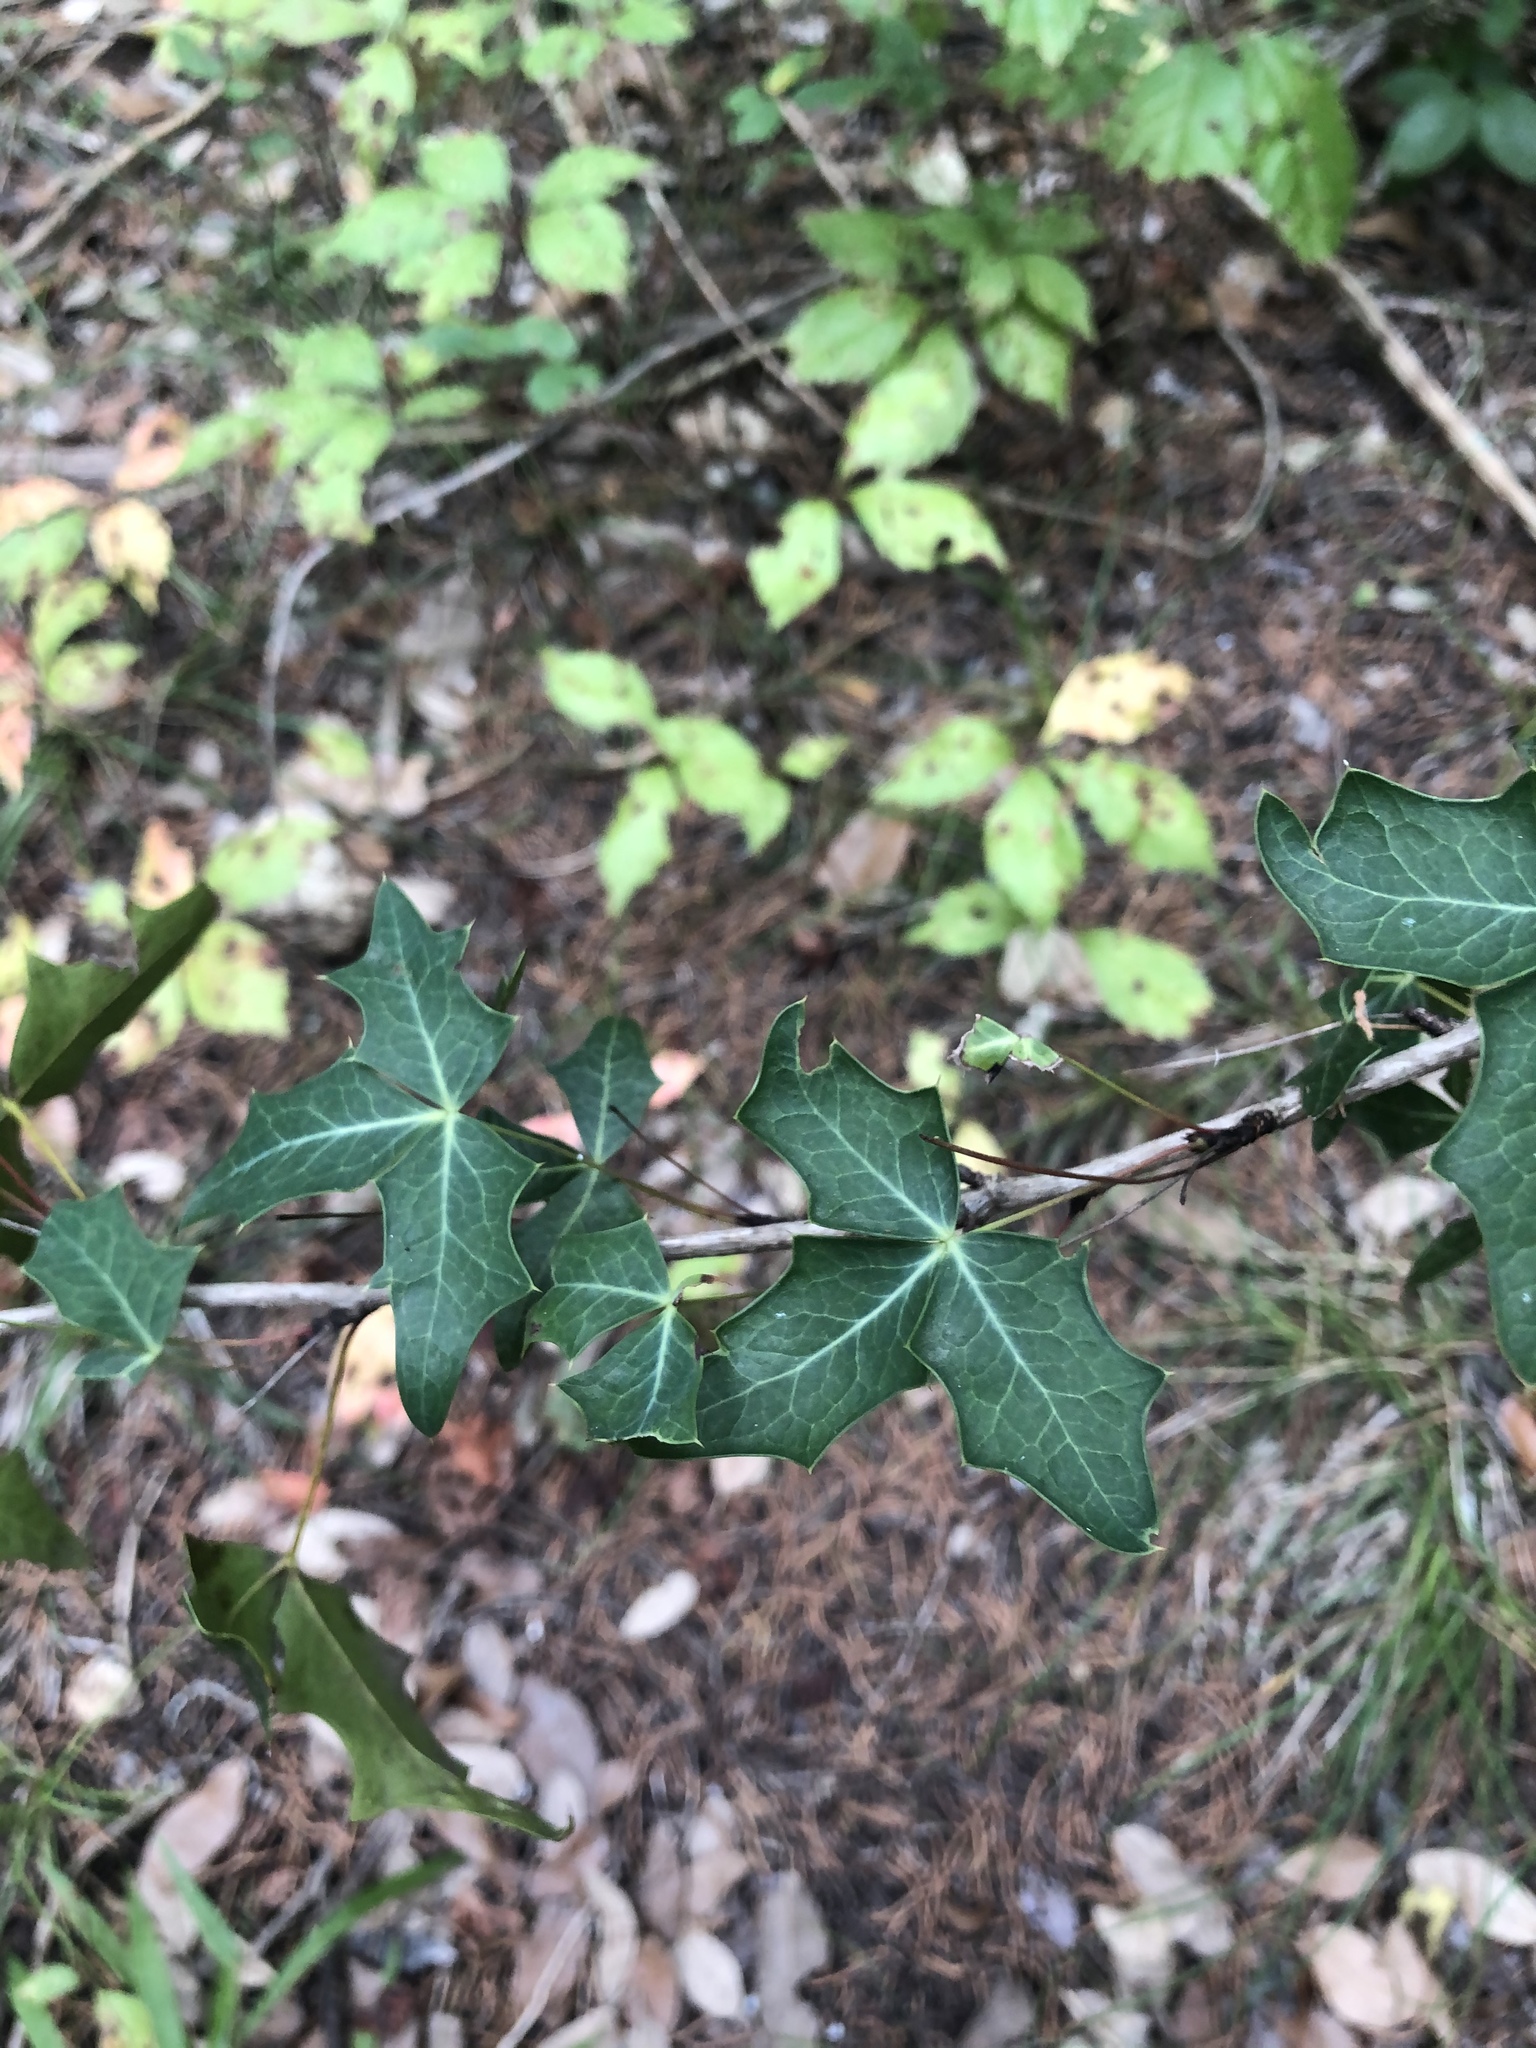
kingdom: Plantae
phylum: Tracheophyta
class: Magnoliopsida
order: Ranunculales
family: Berberidaceae
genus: Alloberberis
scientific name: Alloberberis trifoliolata
